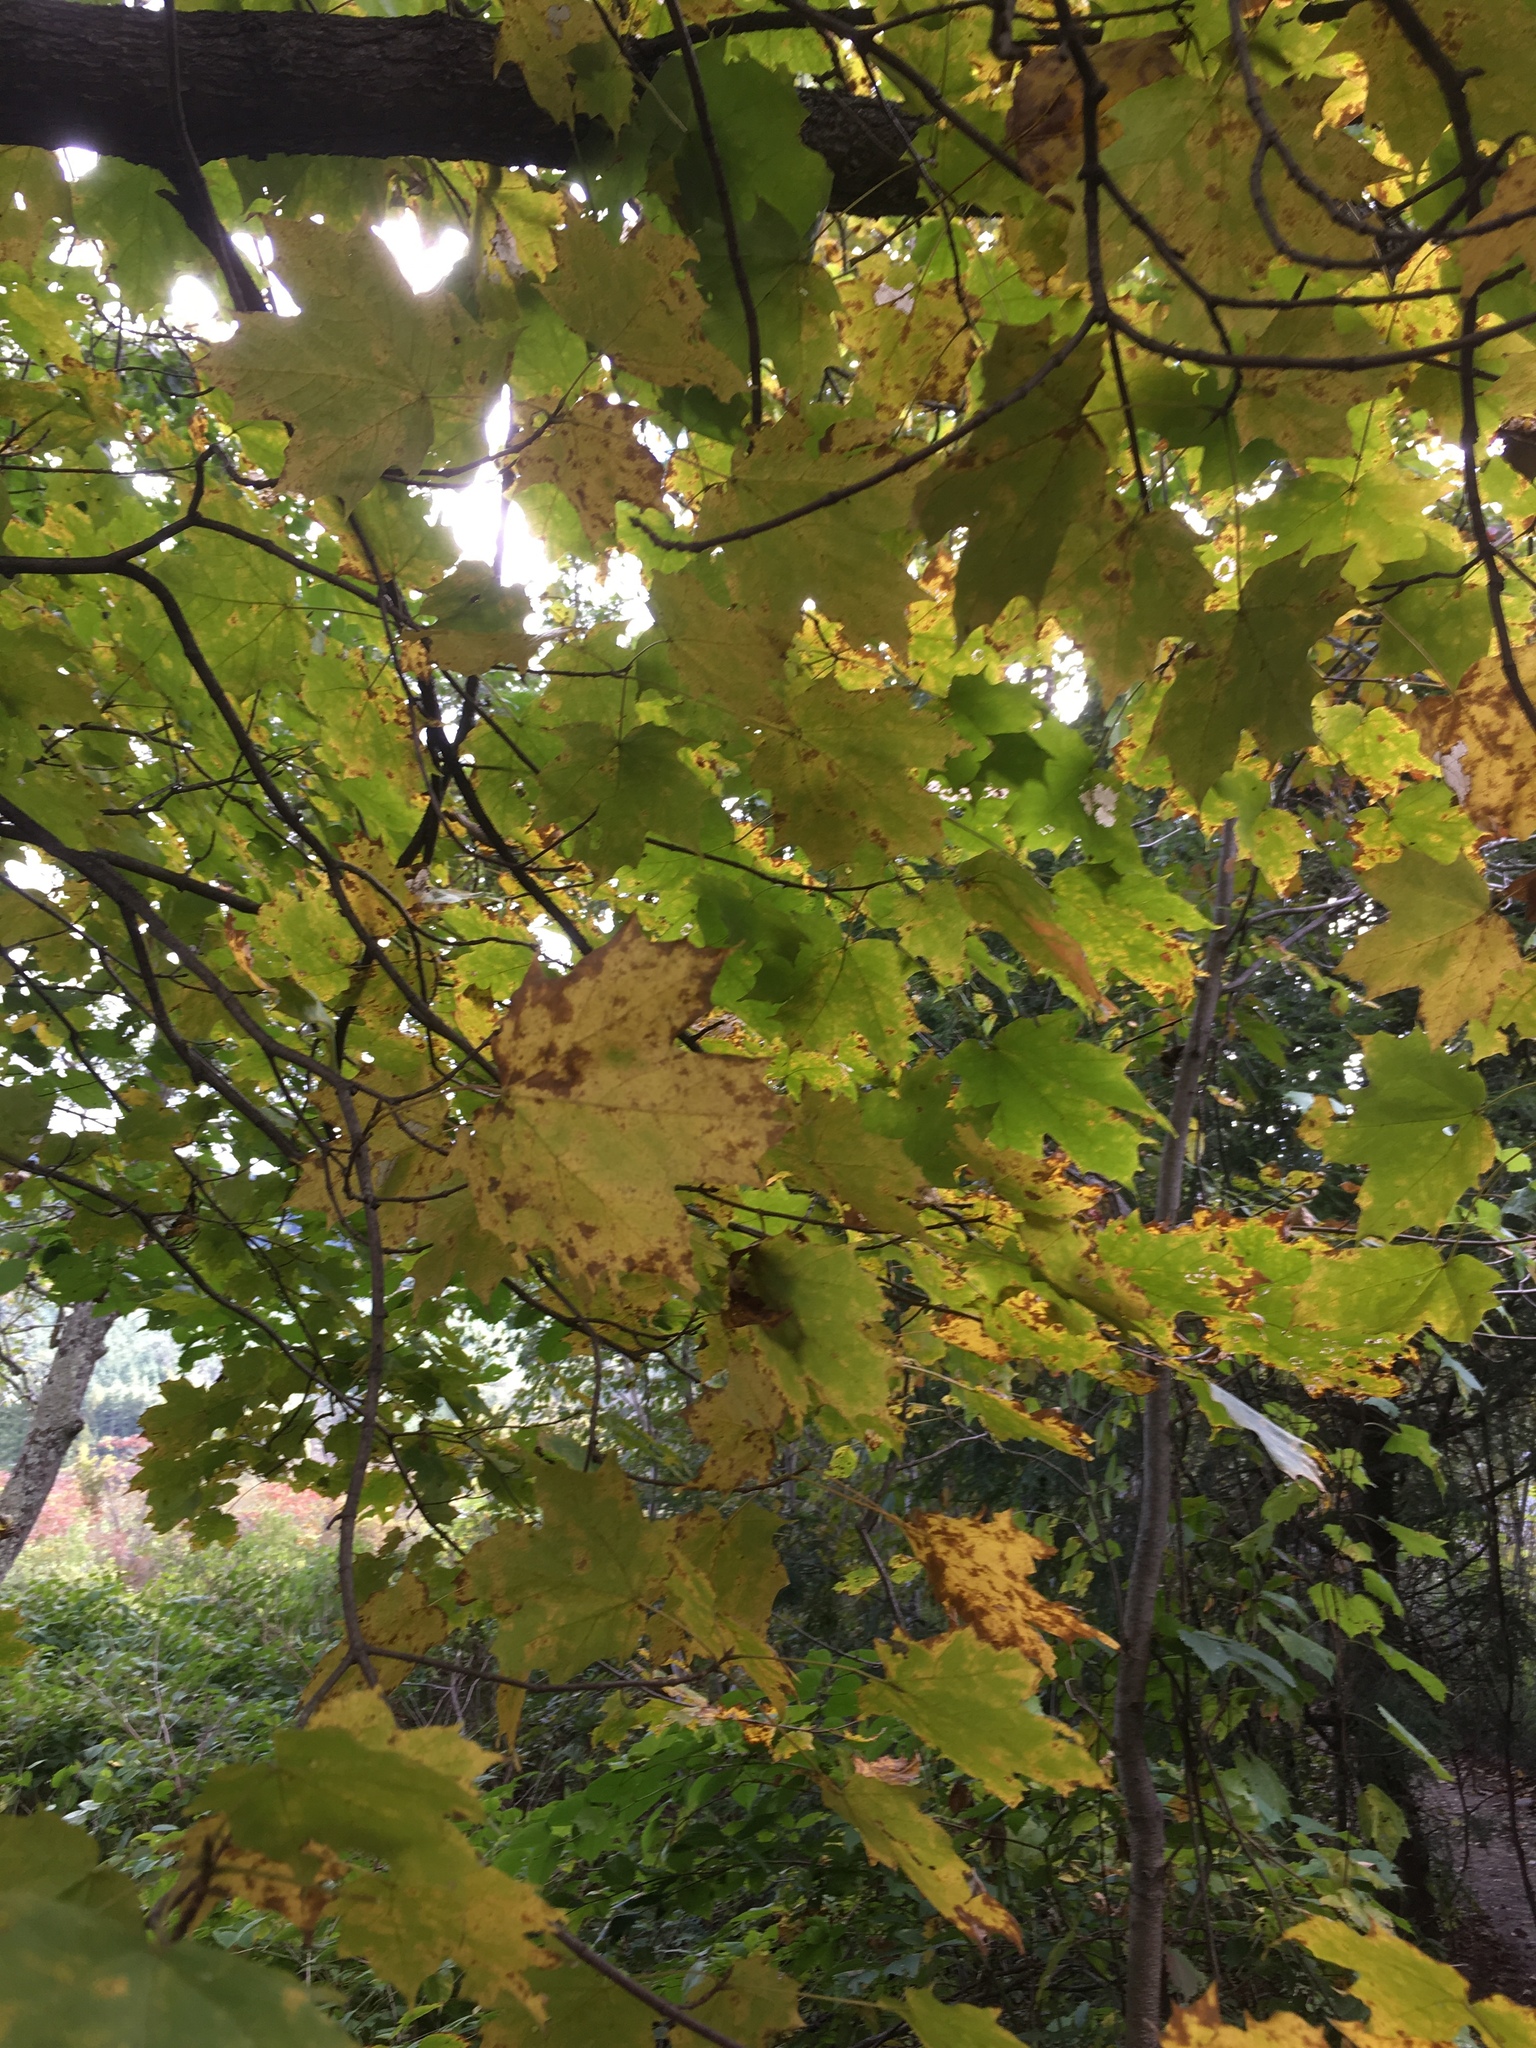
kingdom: Plantae
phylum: Tracheophyta
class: Magnoliopsida
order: Sapindales
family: Sapindaceae
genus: Acer
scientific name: Acer saccharum
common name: Sugar maple
